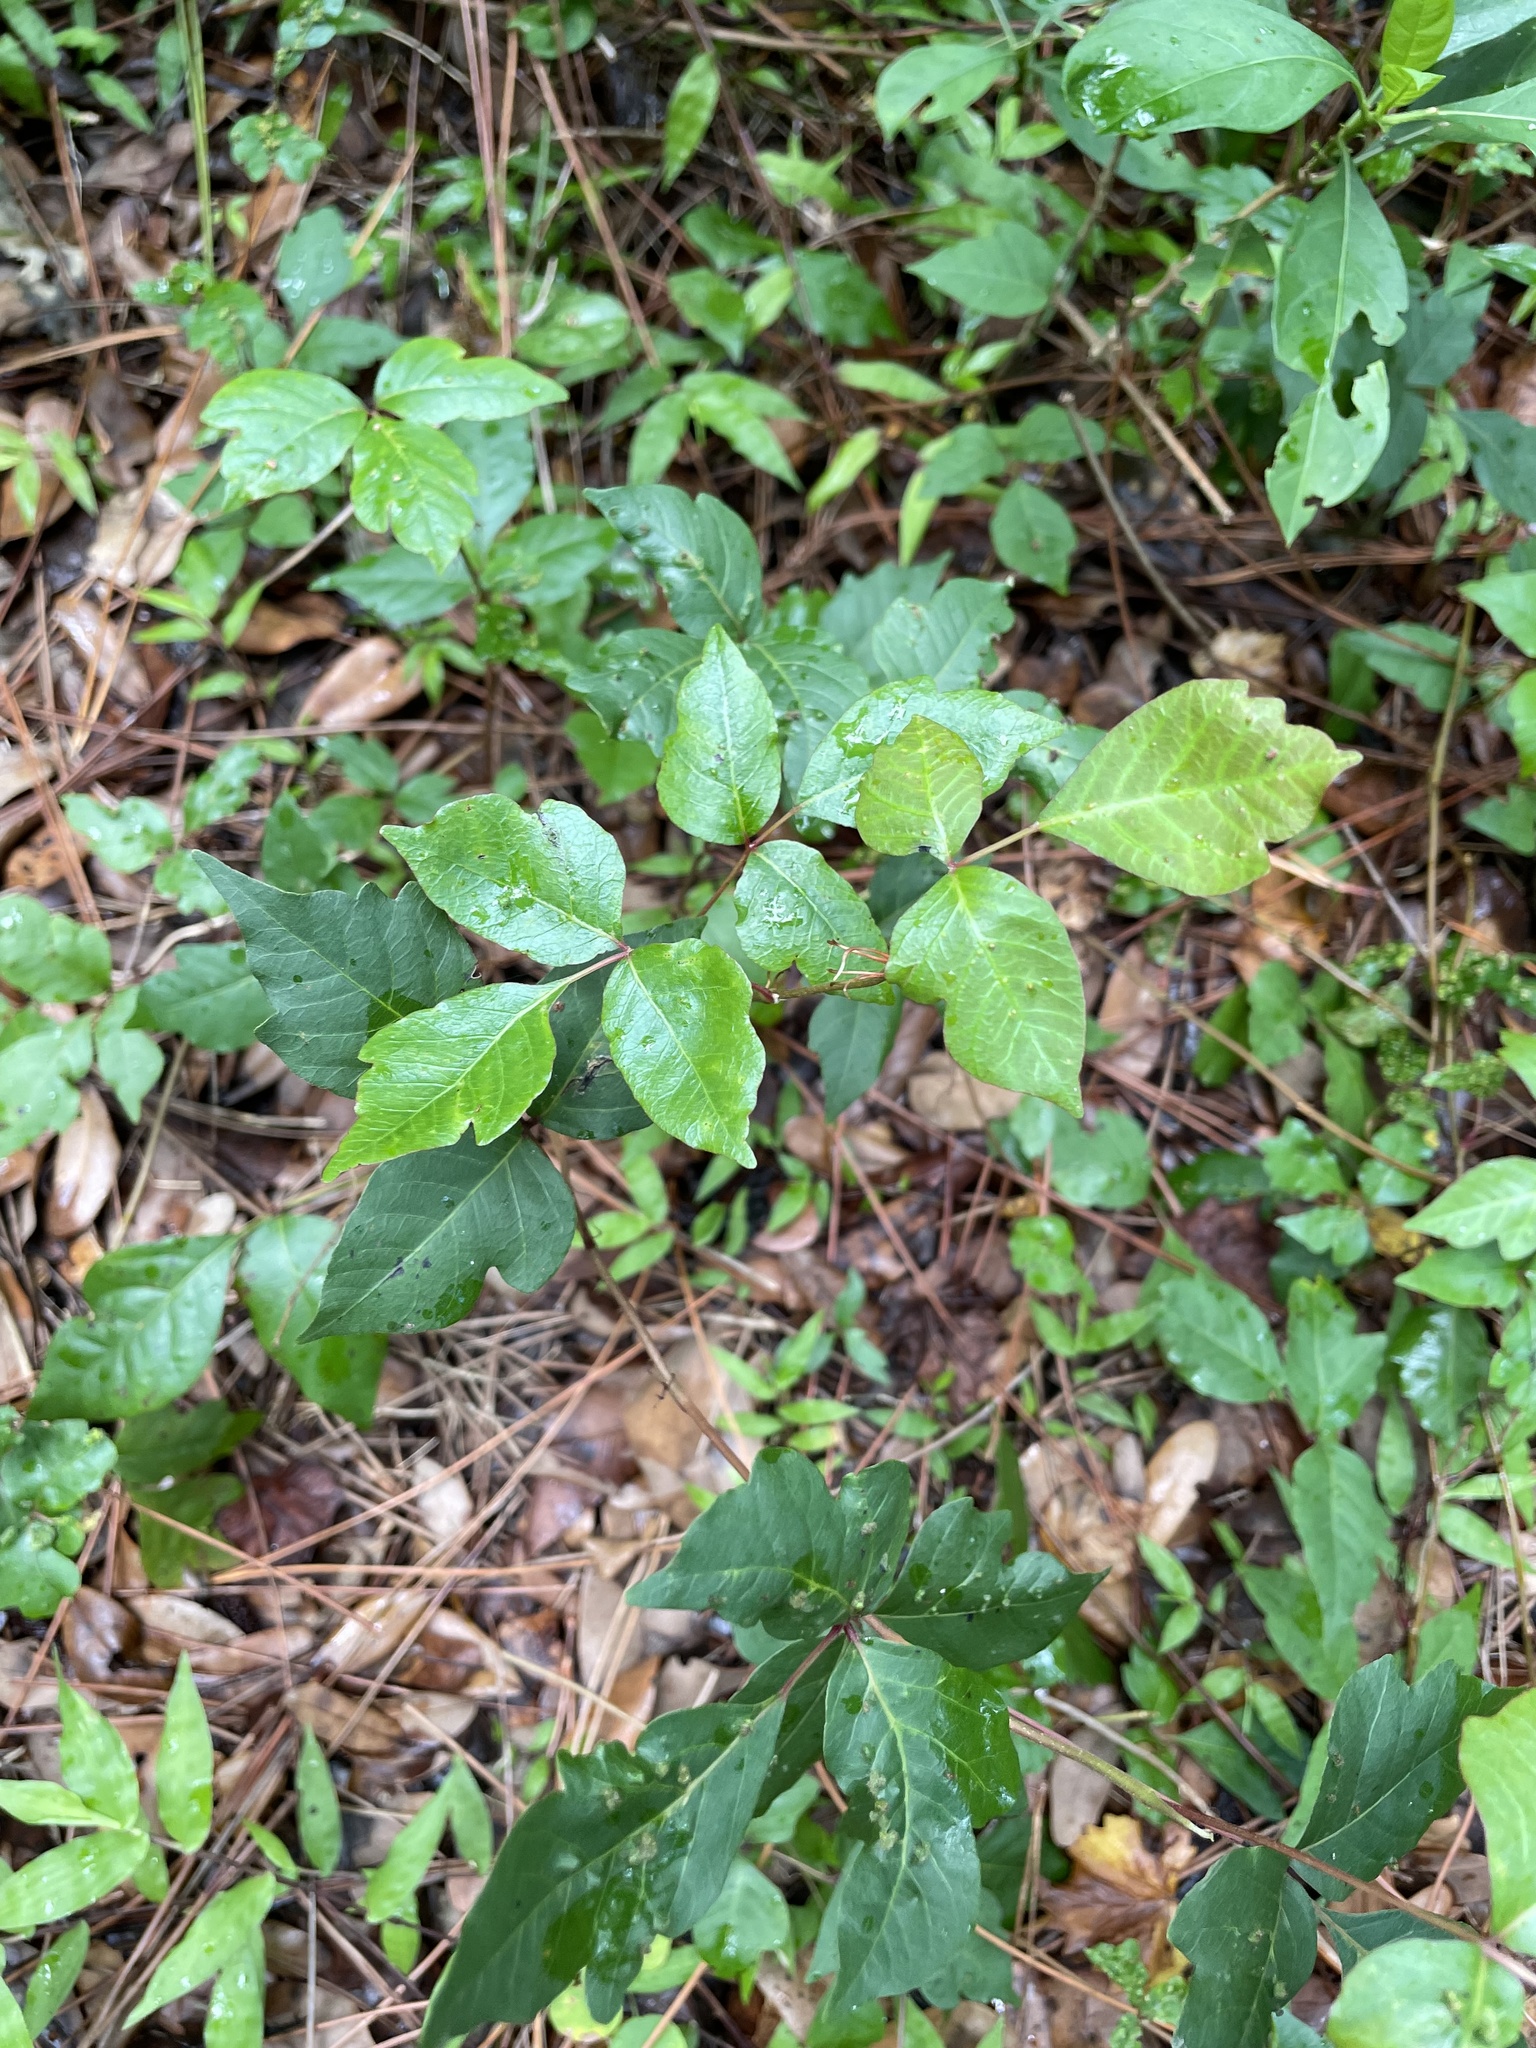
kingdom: Plantae
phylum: Tracheophyta
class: Magnoliopsida
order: Sapindales
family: Anacardiaceae
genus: Toxicodendron
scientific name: Toxicodendron radicans
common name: Poison ivy
